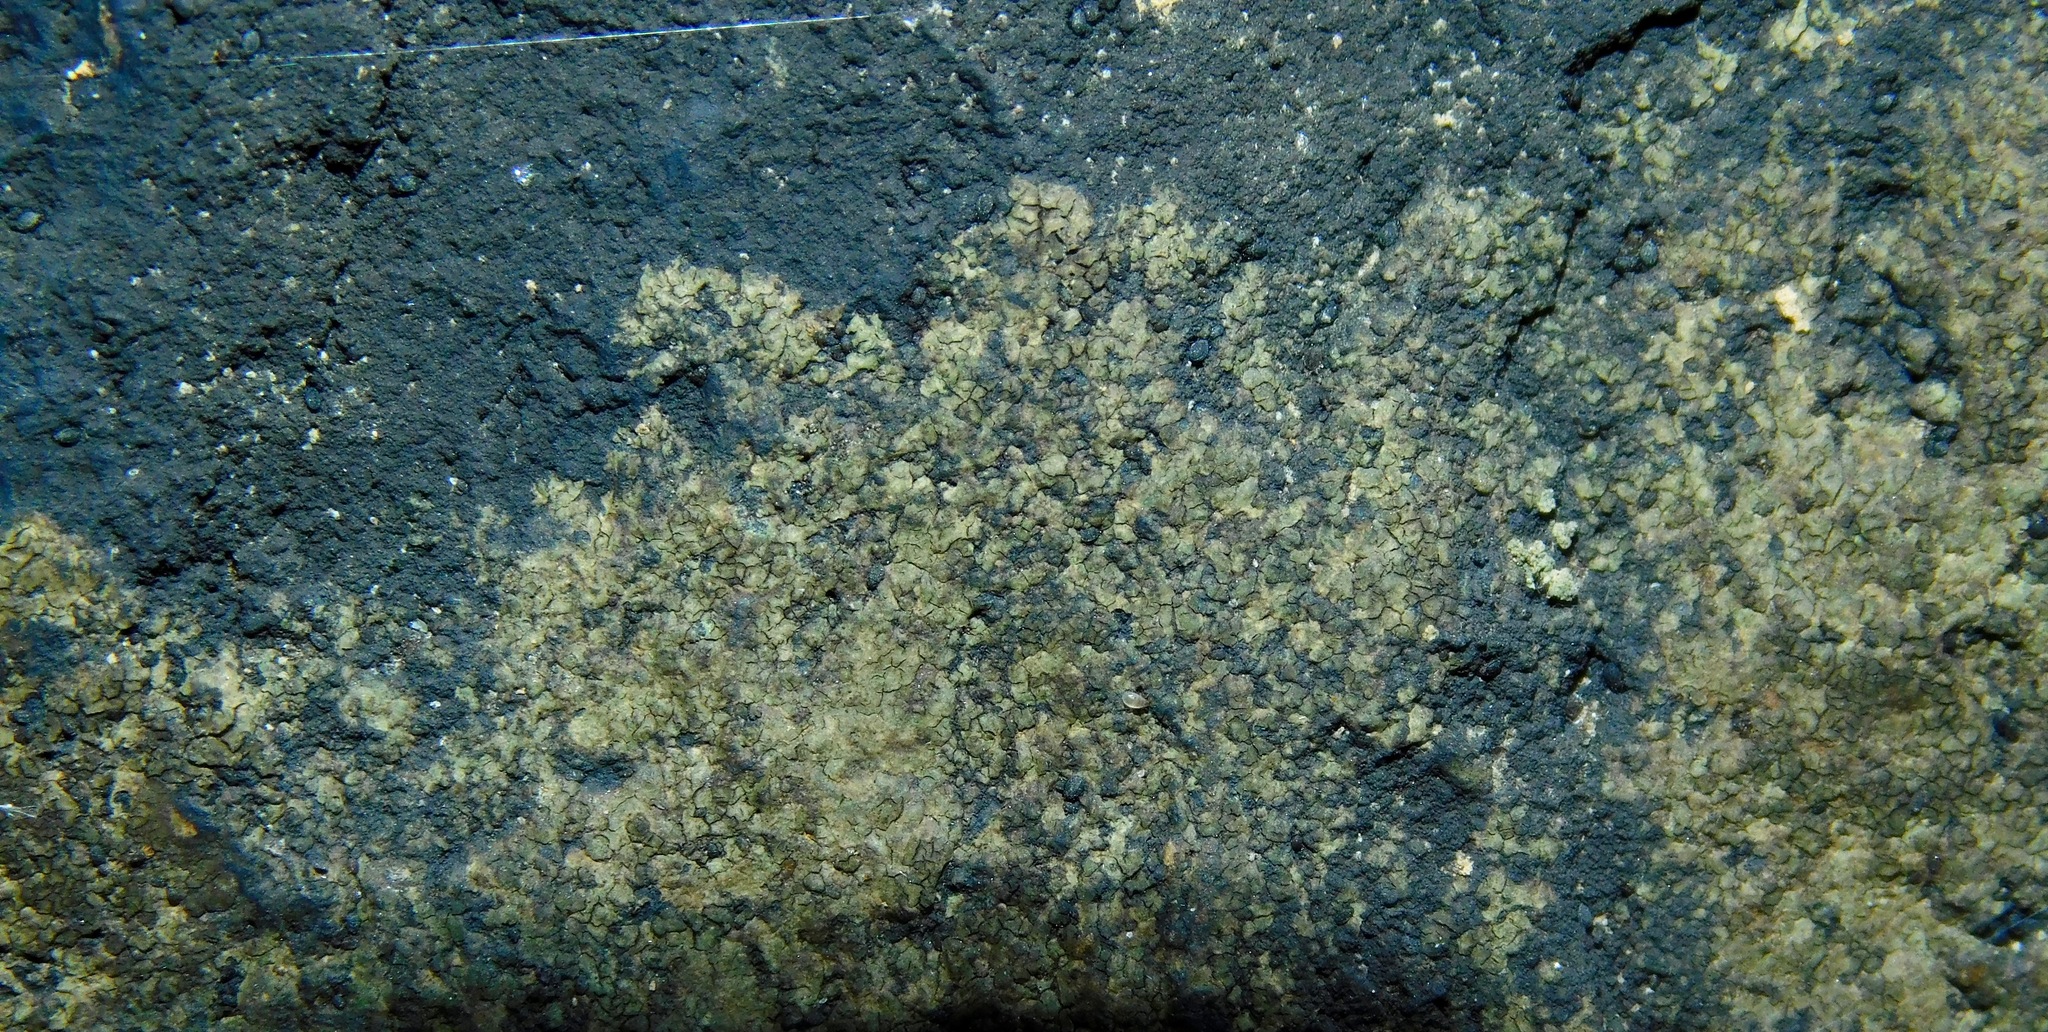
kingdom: Fungi
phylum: Ascomycota
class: Lecanoromycetes
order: Peltigerales
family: Placynthiaceae
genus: Placynthium
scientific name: Placynthium nigrum
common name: Blackthread lichen
